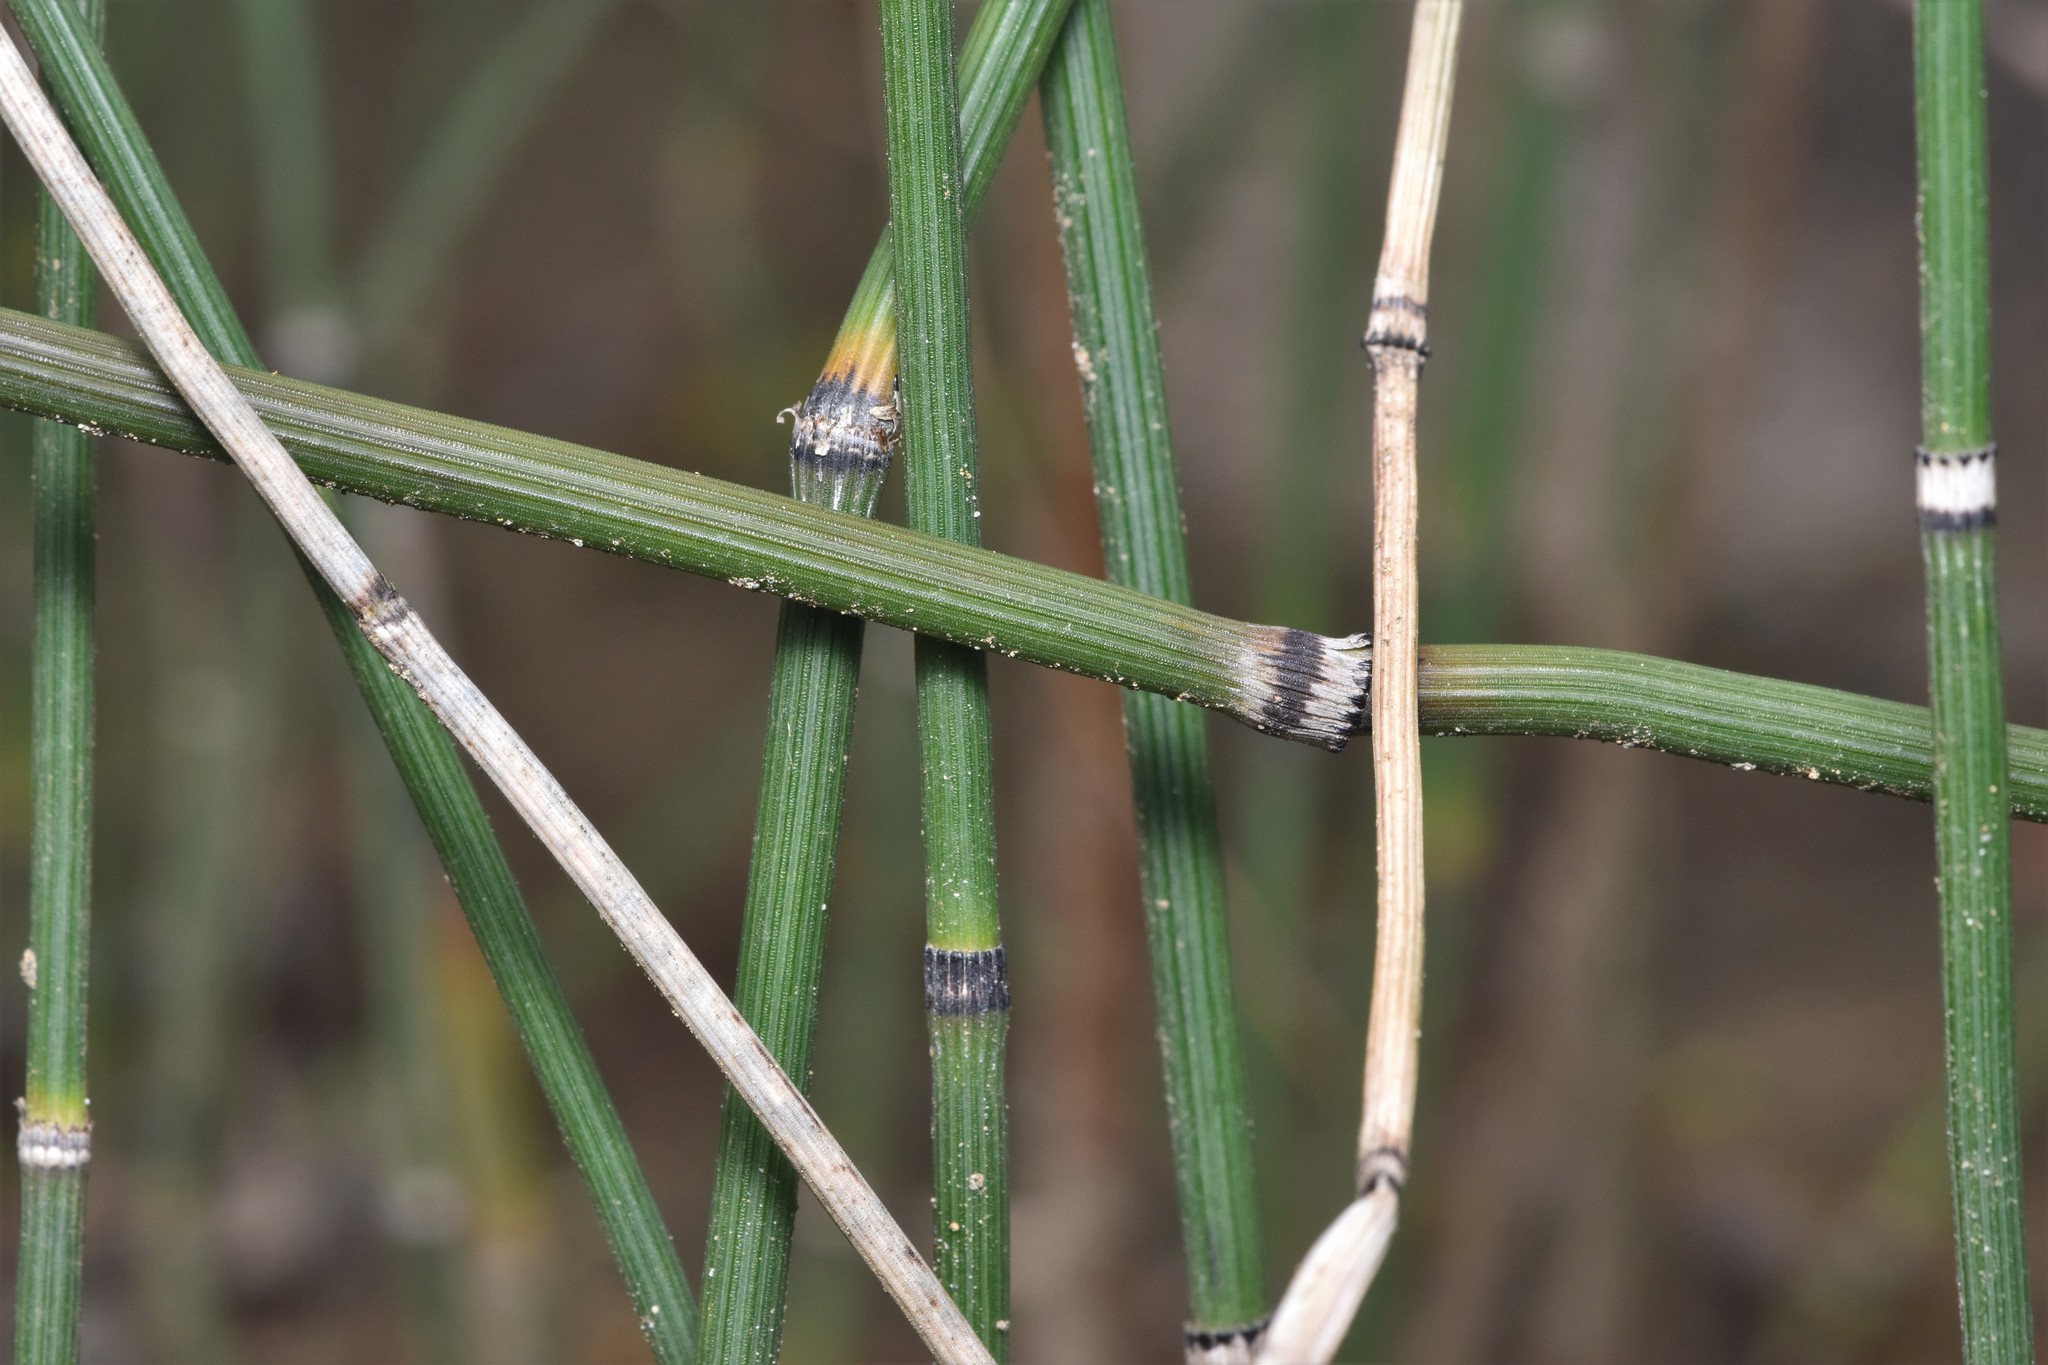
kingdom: Plantae
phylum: Tracheophyta
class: Polypodiopsida
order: Equisetales
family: Equisetaceae
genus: Equisetum
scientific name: Equisetum hyemale
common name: Rough horsetail
